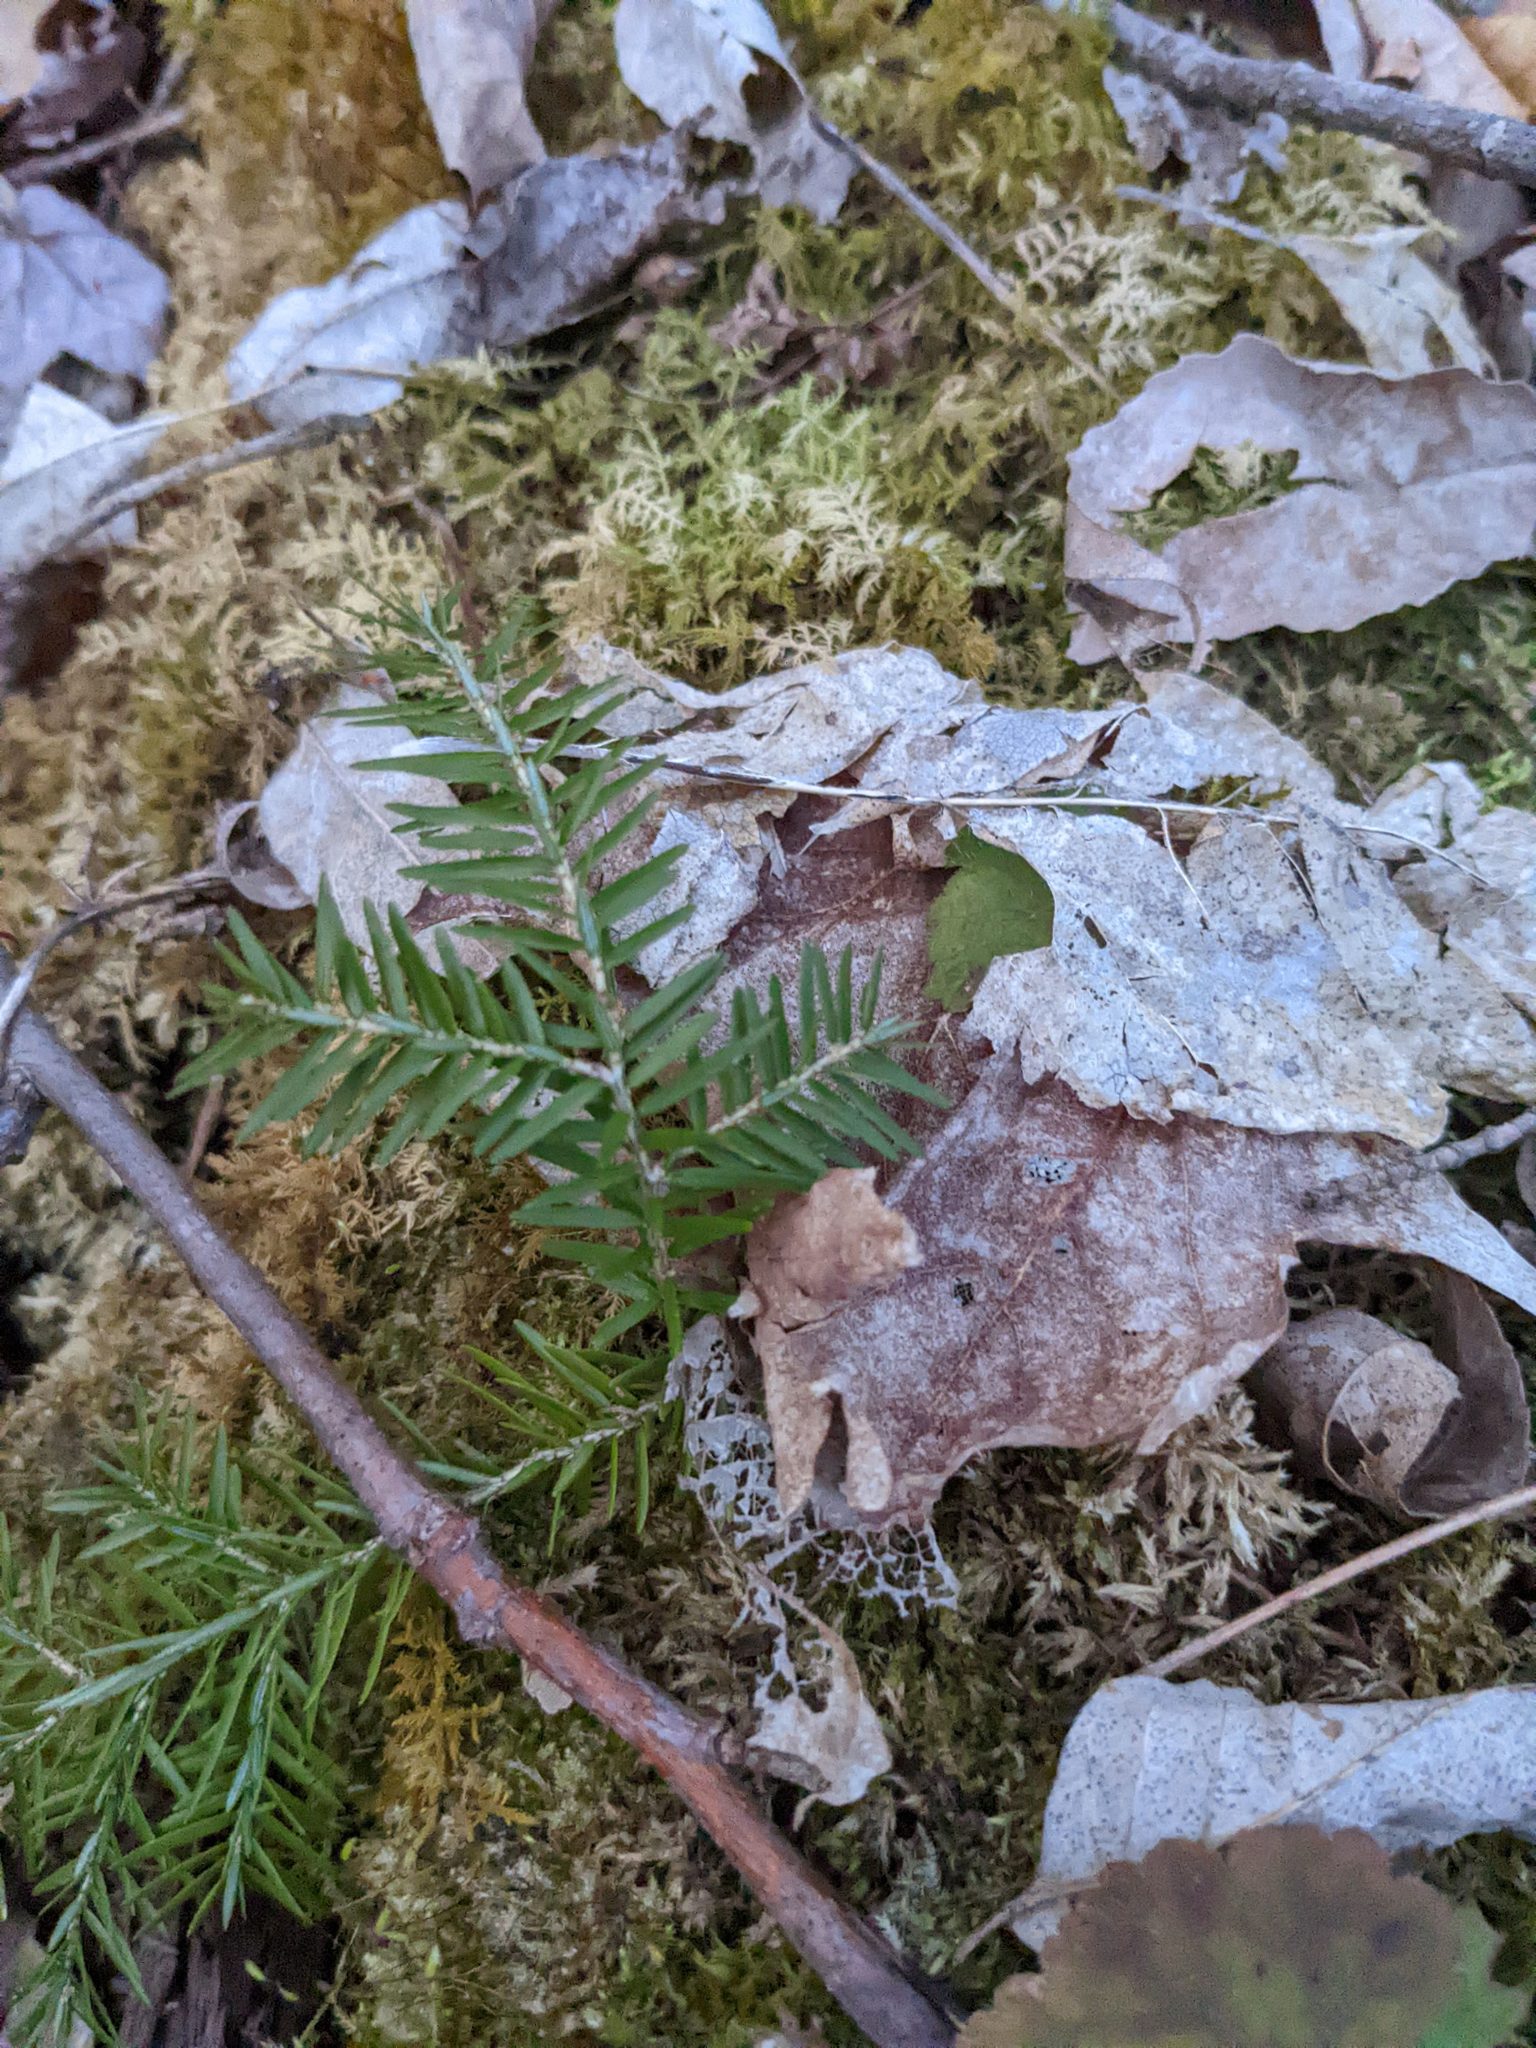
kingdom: Plantae
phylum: Tracheophyta
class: Pinopsida
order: Pinales
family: Pinaceae
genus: Tsuga
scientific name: Tsuga canadensis
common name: Eastern hemlock
